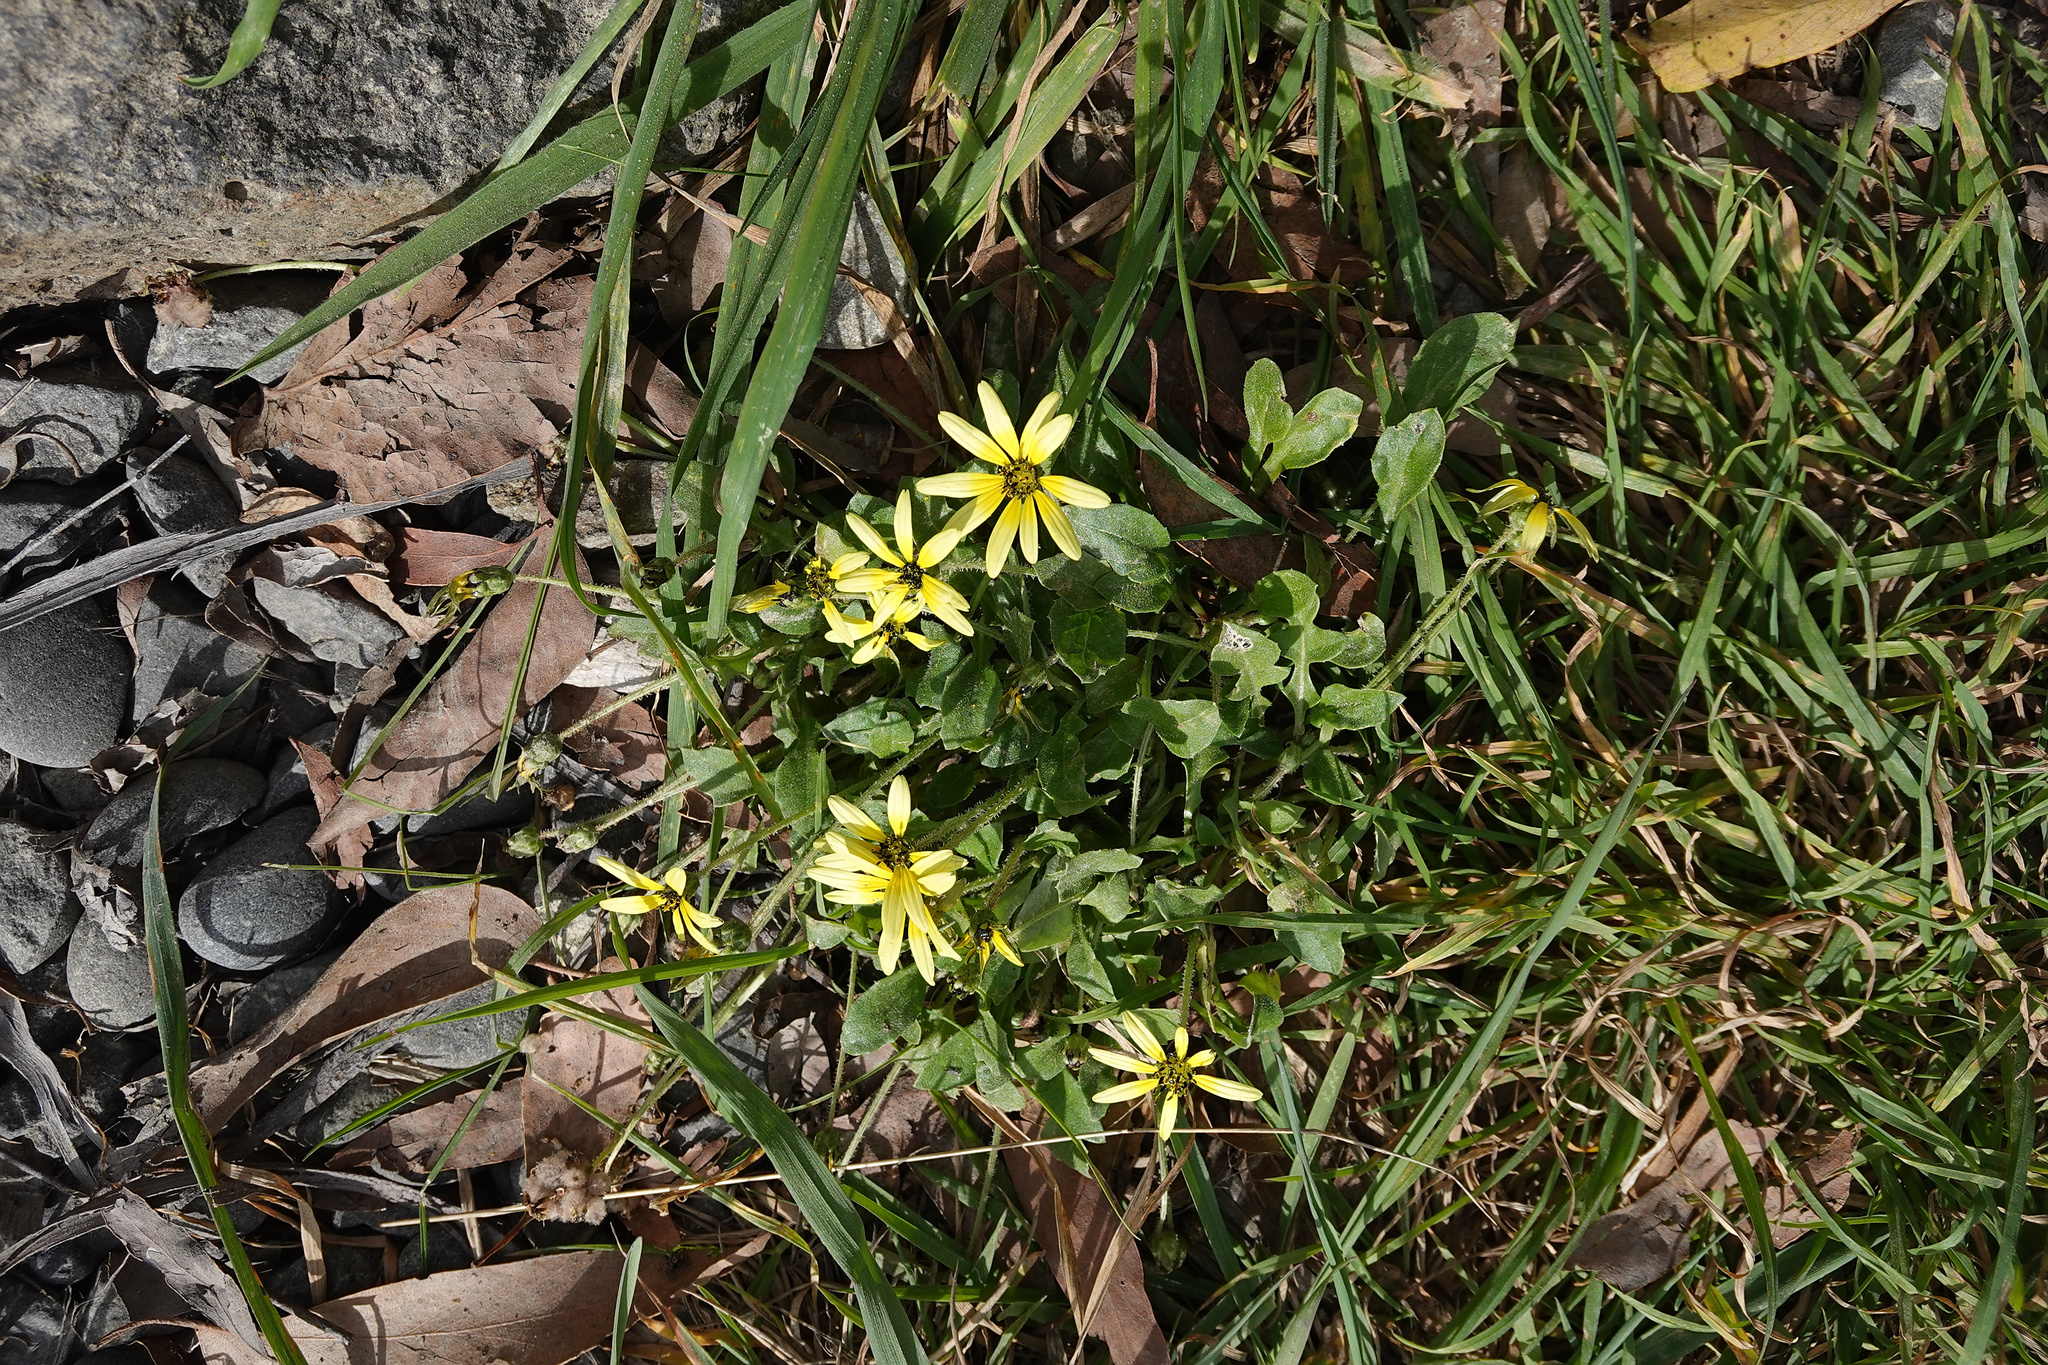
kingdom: Plantae
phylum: Tracheophyta
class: Magnoliopsida
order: Asterales
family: Asteraceae
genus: Arctotheca
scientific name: Arctotheca calendula
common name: Capeweed
